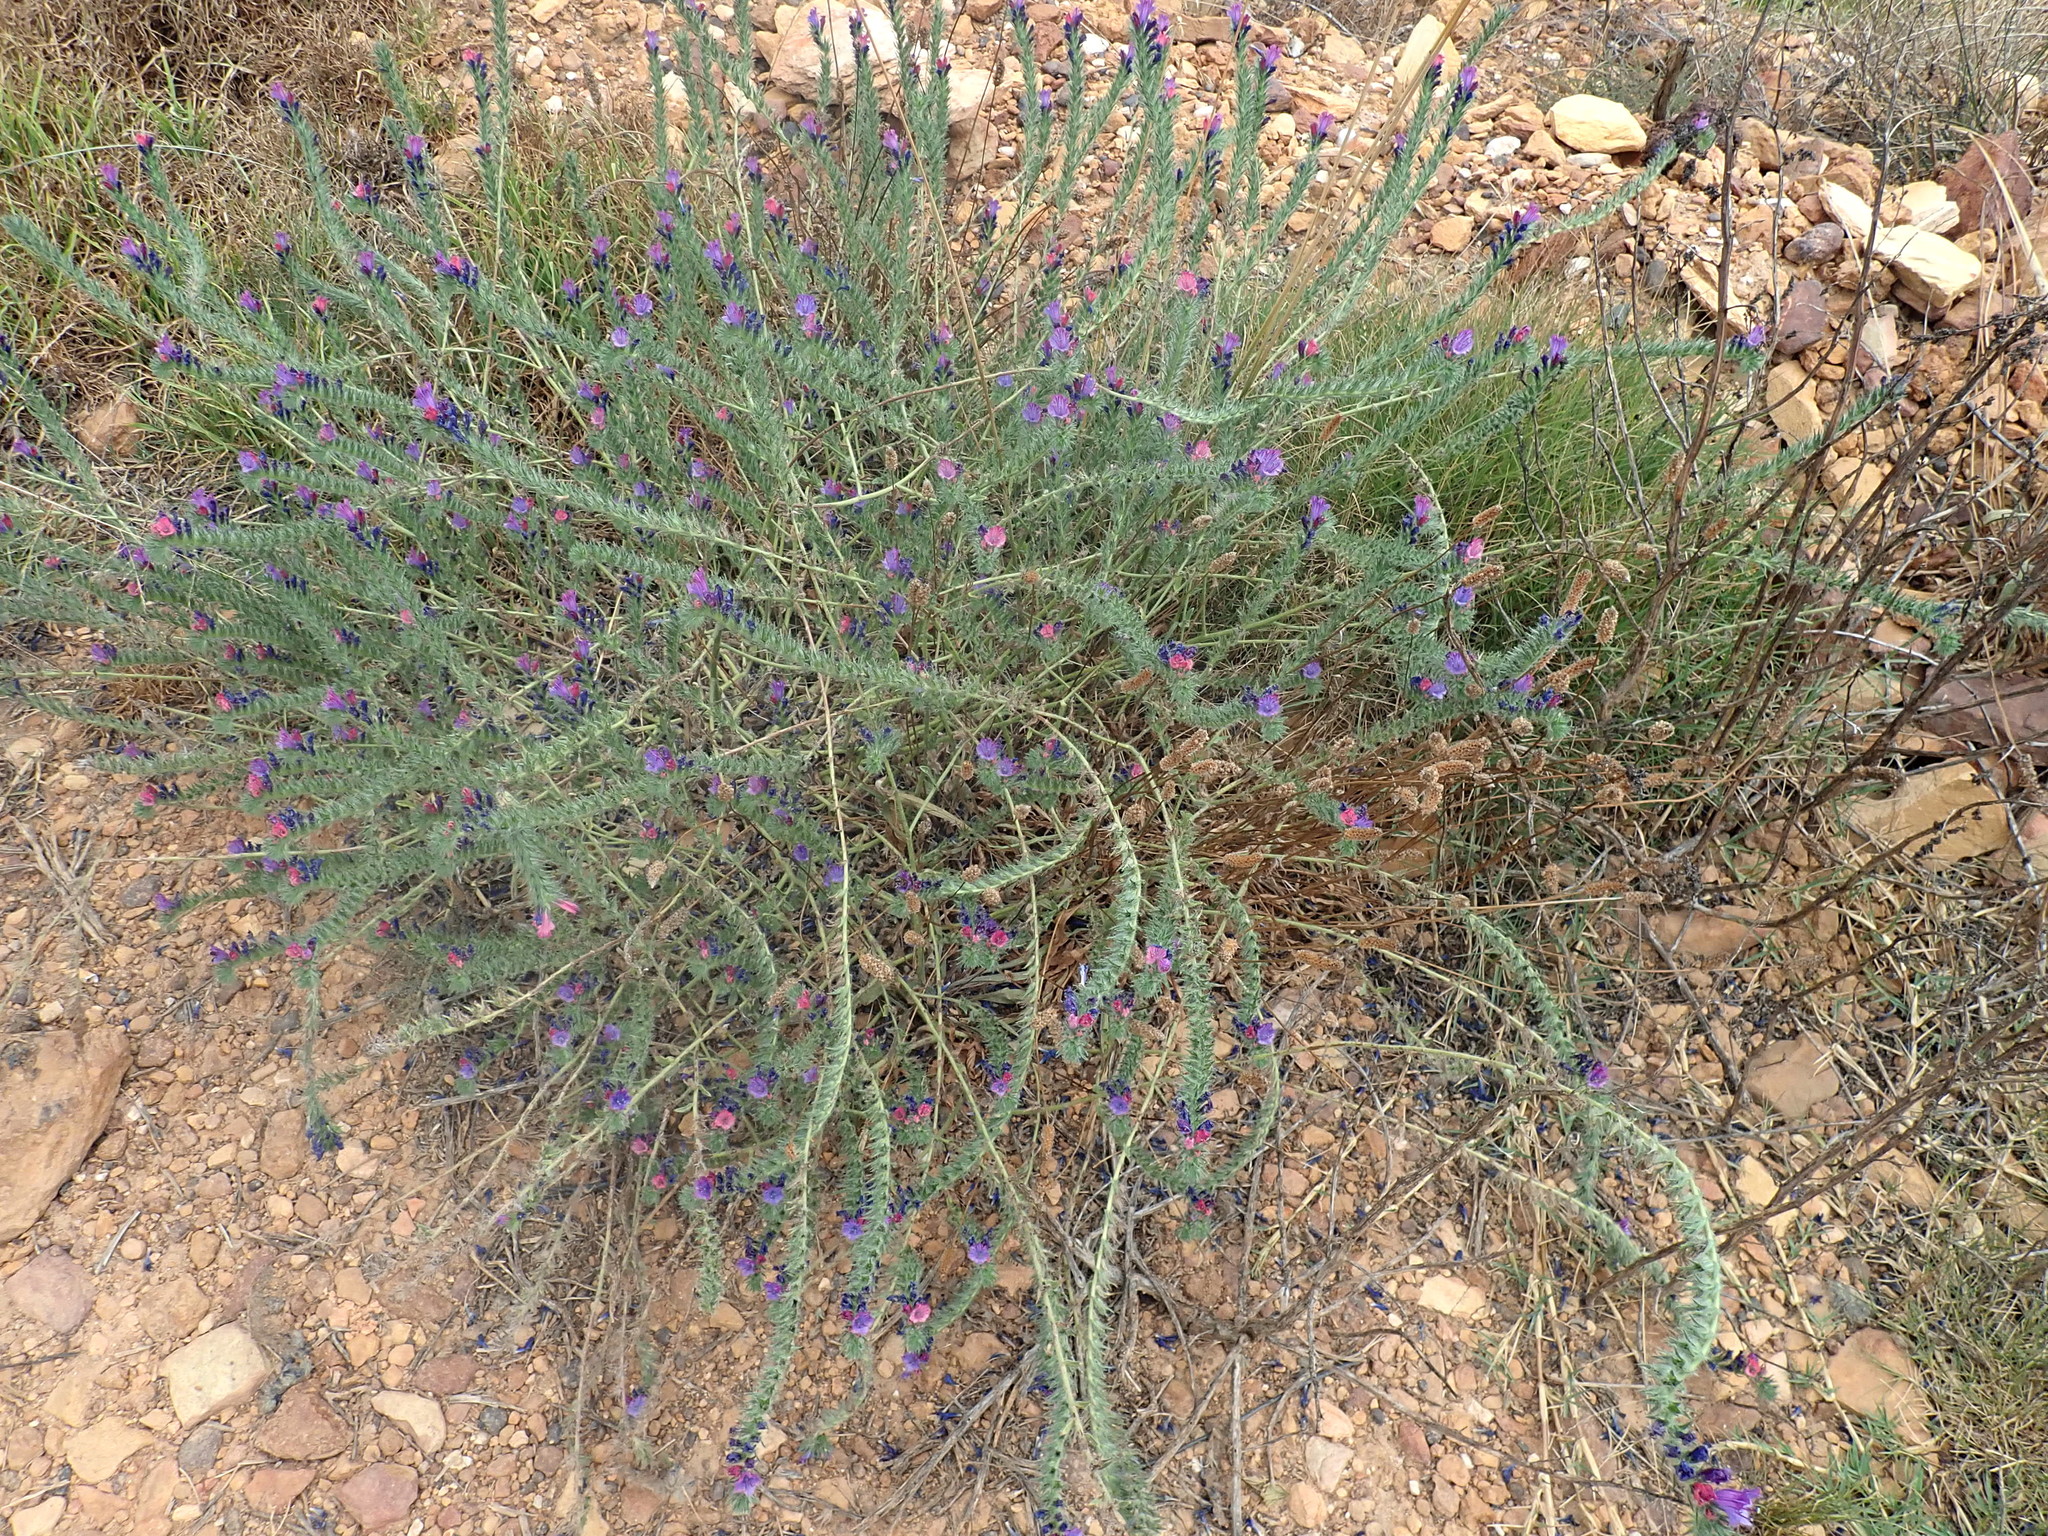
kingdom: Plantae
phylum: Tracheophyta
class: Magnoliopsida
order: Boraginales
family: Boraginaceae
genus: Echium
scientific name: Echium plantagineum
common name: Purple viper's-bugloss
